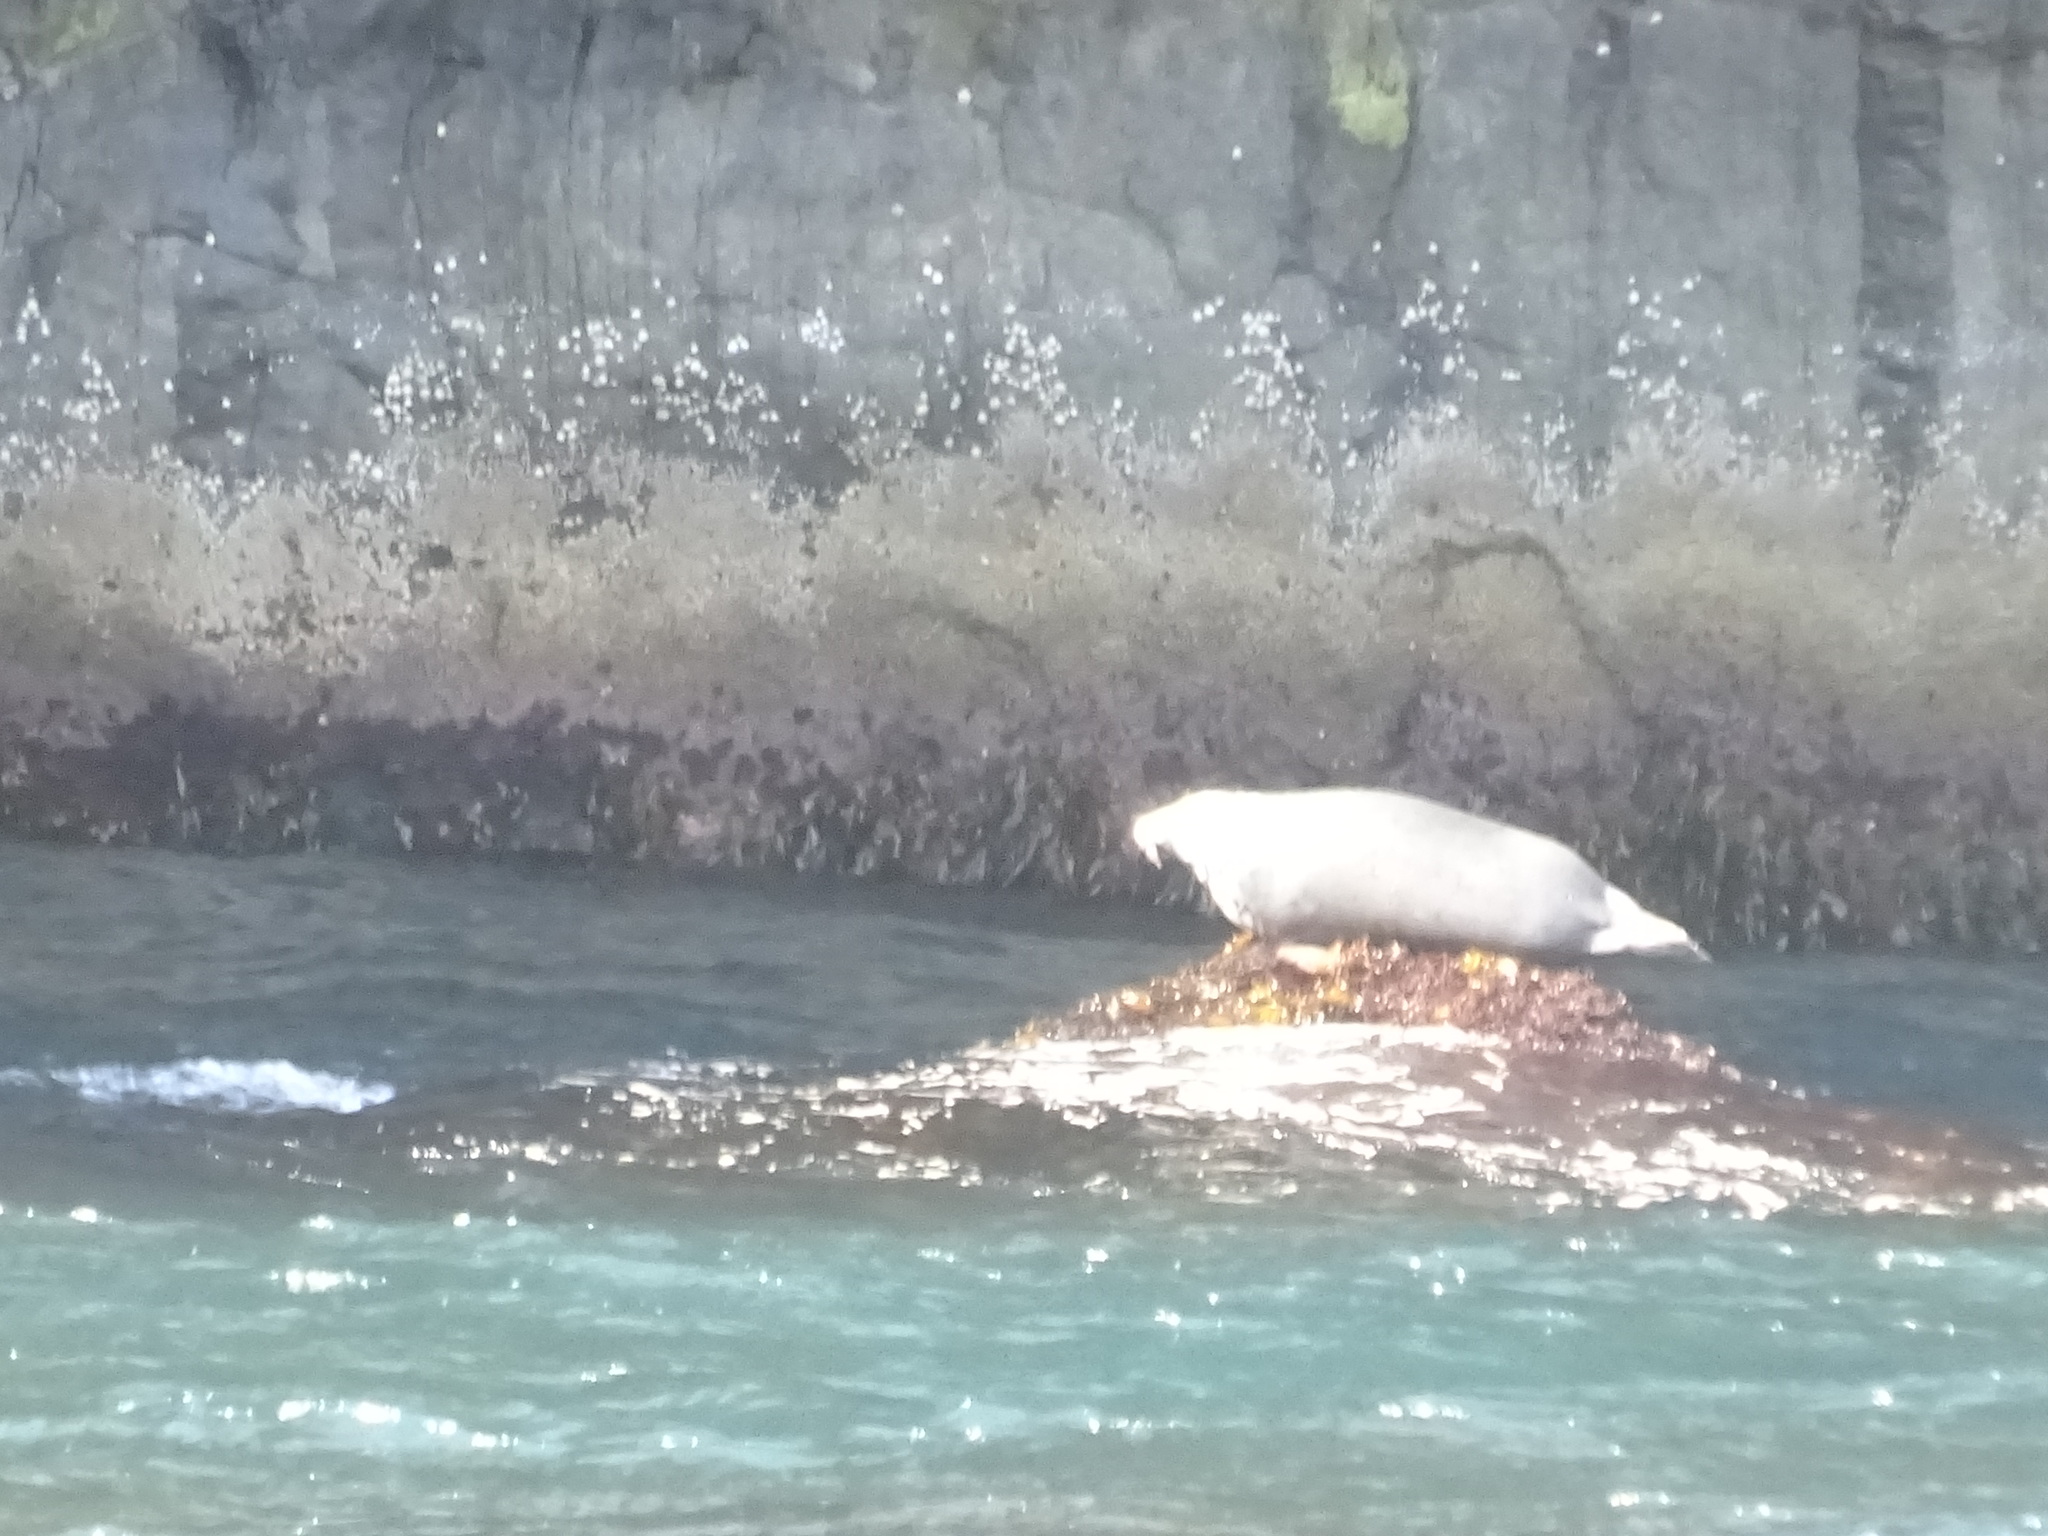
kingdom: Animalia
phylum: Chordata
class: Mammalia
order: Carnivora
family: Phocidae
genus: Halichoerus
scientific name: Halichoerus grypus
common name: Grey seal
